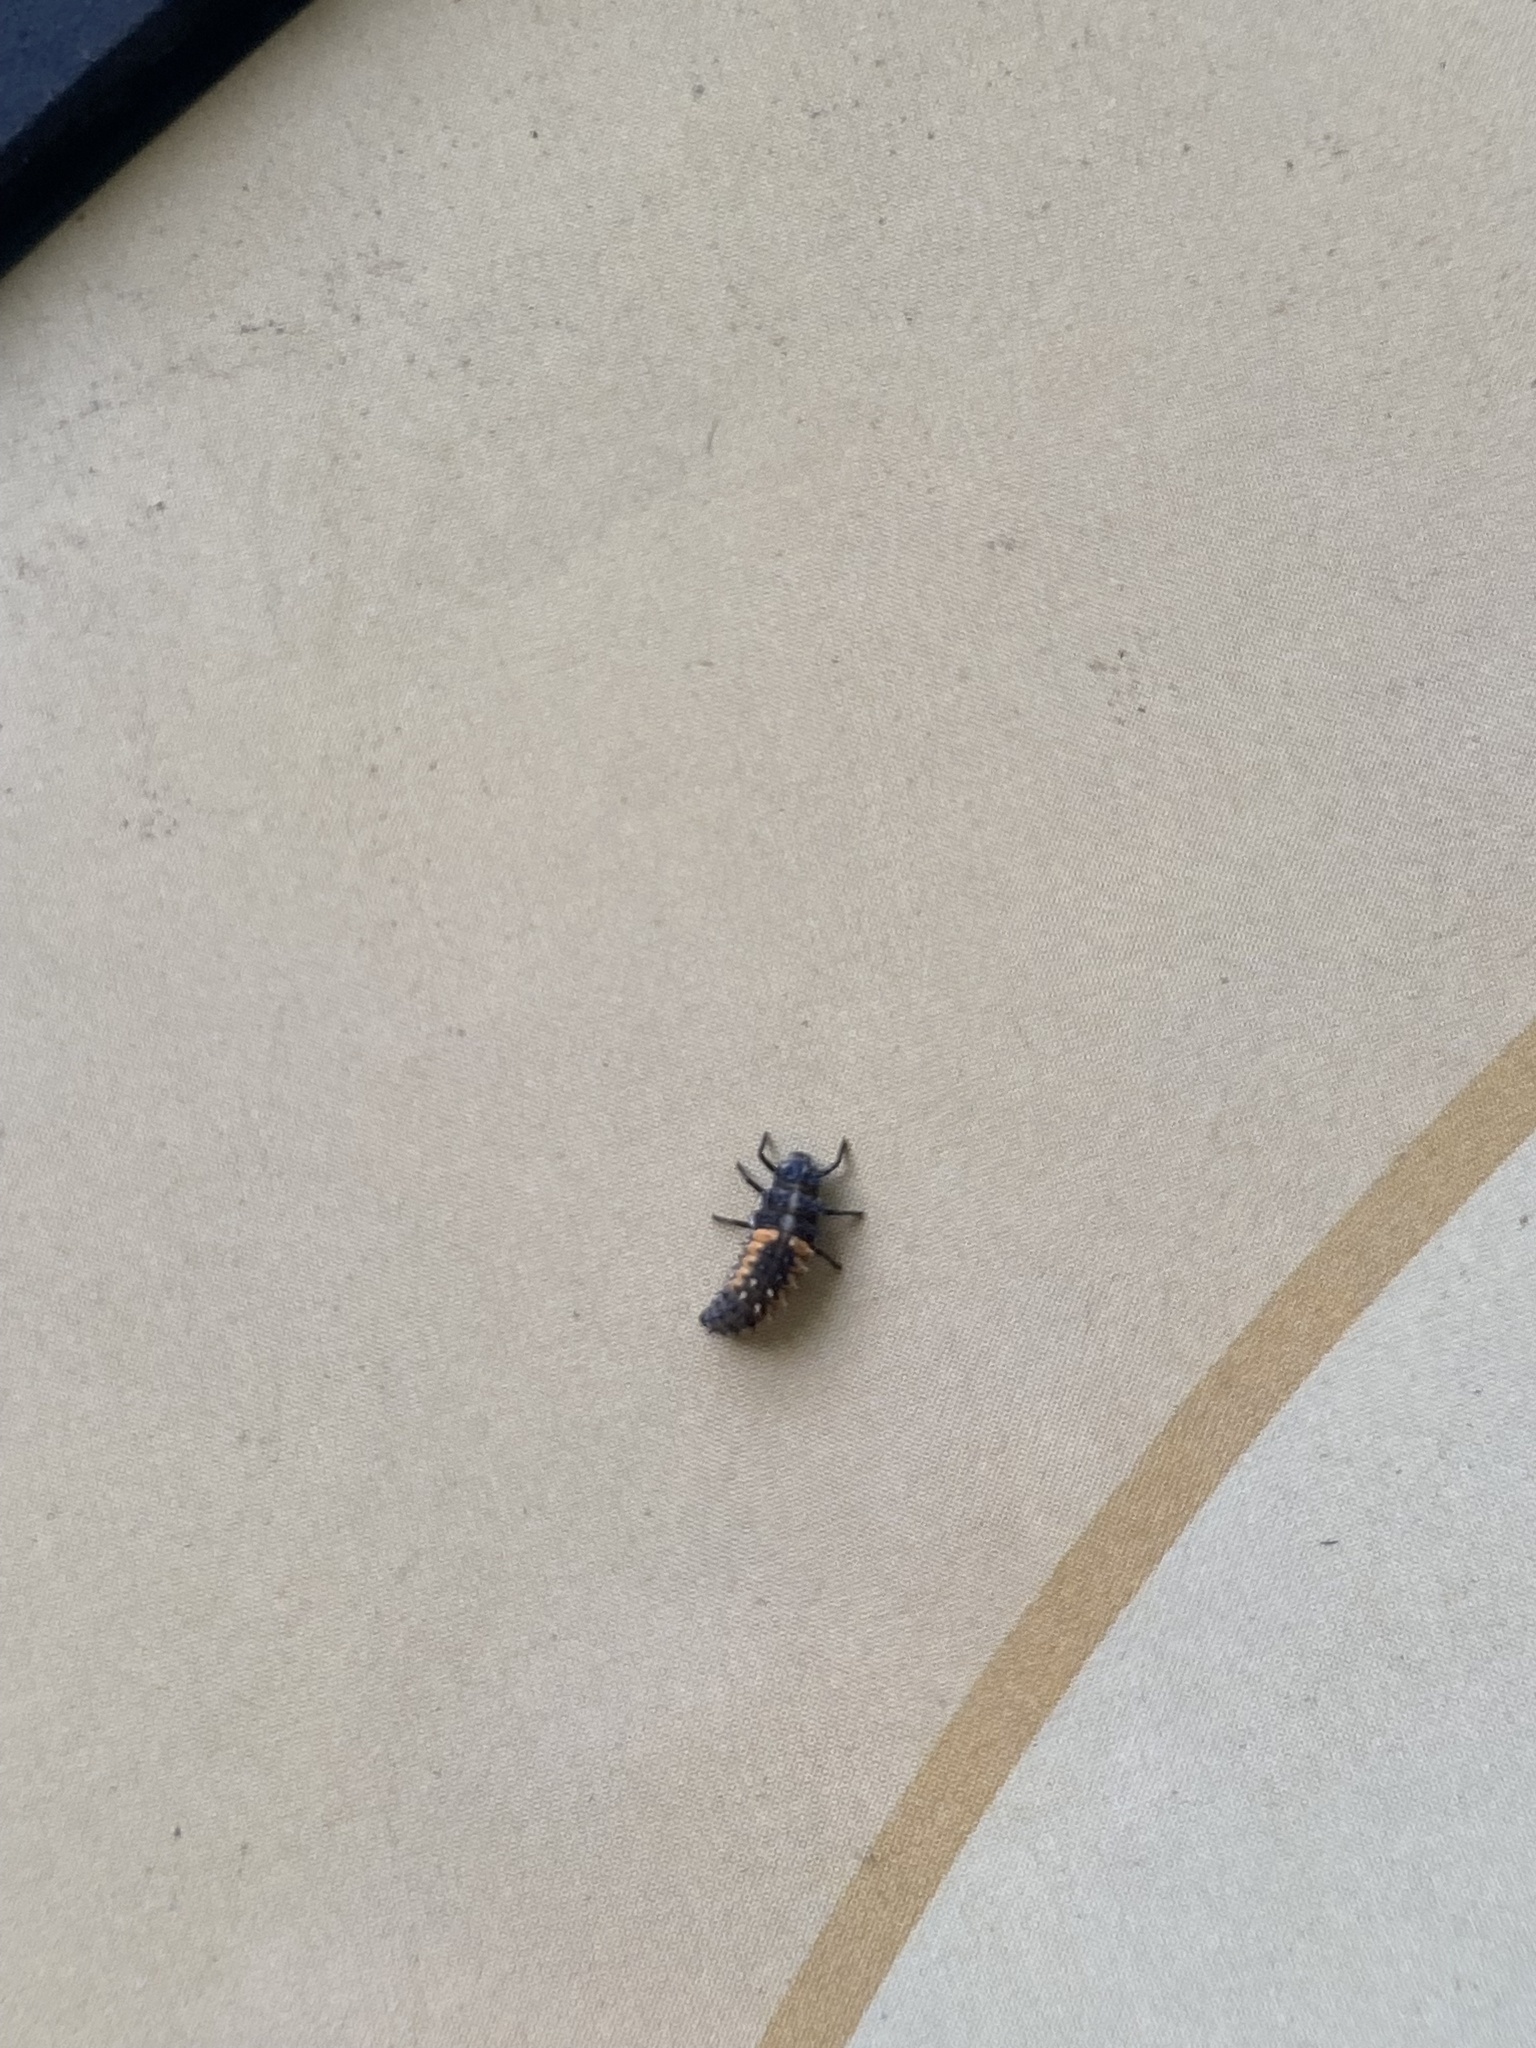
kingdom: Animalia
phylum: Arthropoda
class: Insecta
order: Coleoptera
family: Coccinellidae
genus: Harmonia
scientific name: Harmonia axyridis
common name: Harlequin ladybird
